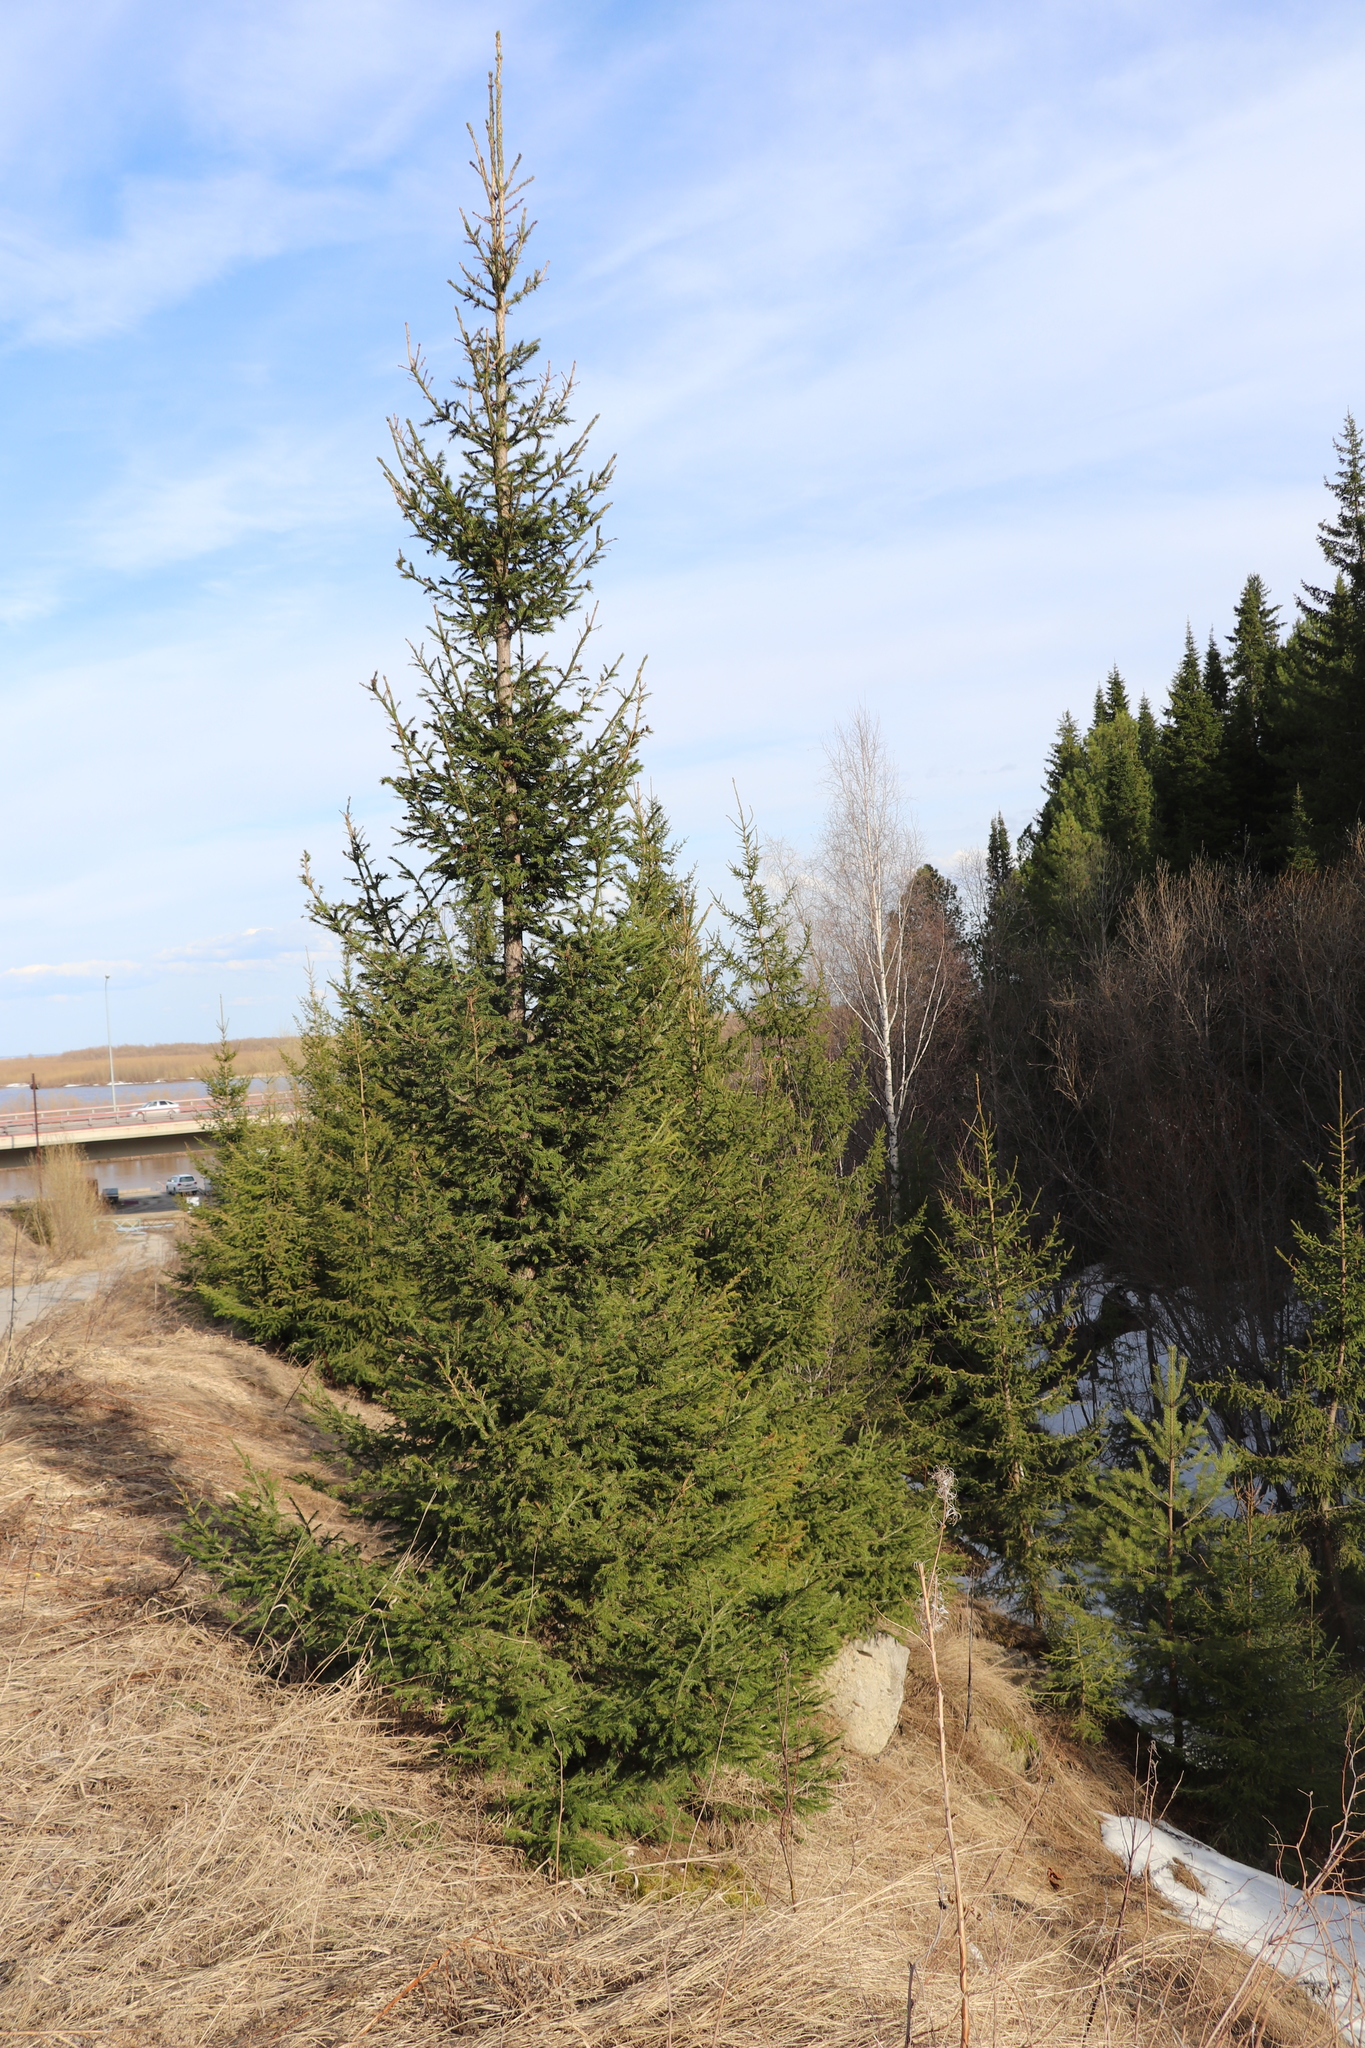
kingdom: Plantae
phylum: Tracheophyta
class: Pinopsida
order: Pinales
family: Pinaceae
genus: Picea
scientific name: Picea obovata
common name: Siberian spruce
